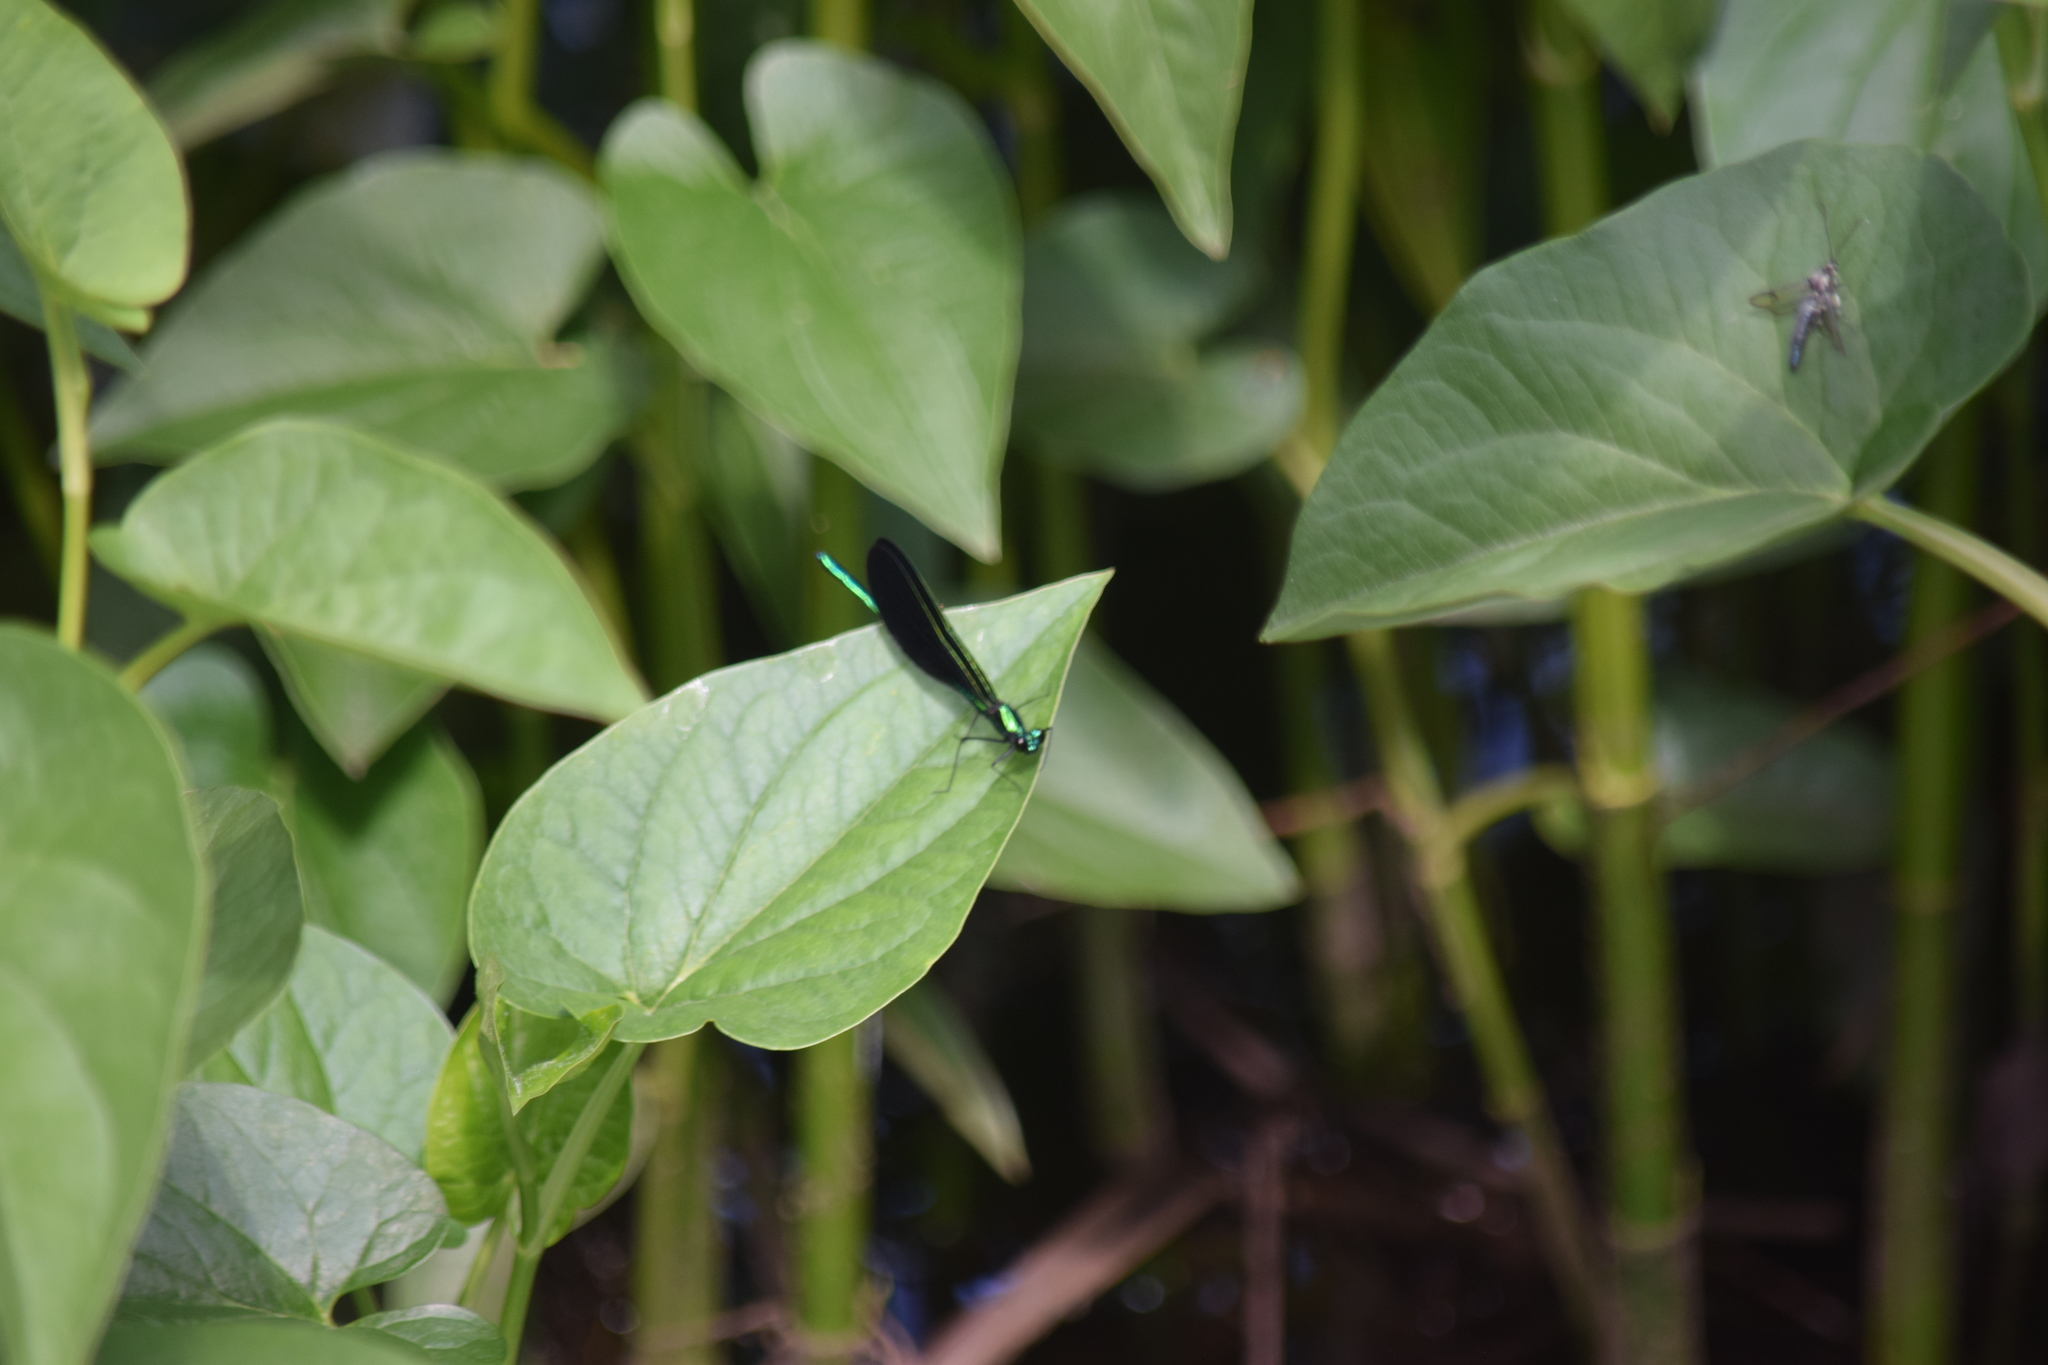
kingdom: Animalia
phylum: Arthropoda
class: Insecta
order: Odonata
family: Calopterygidae
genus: Calopteryx
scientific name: Calopteryx maculata
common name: Ebony jewelwing
